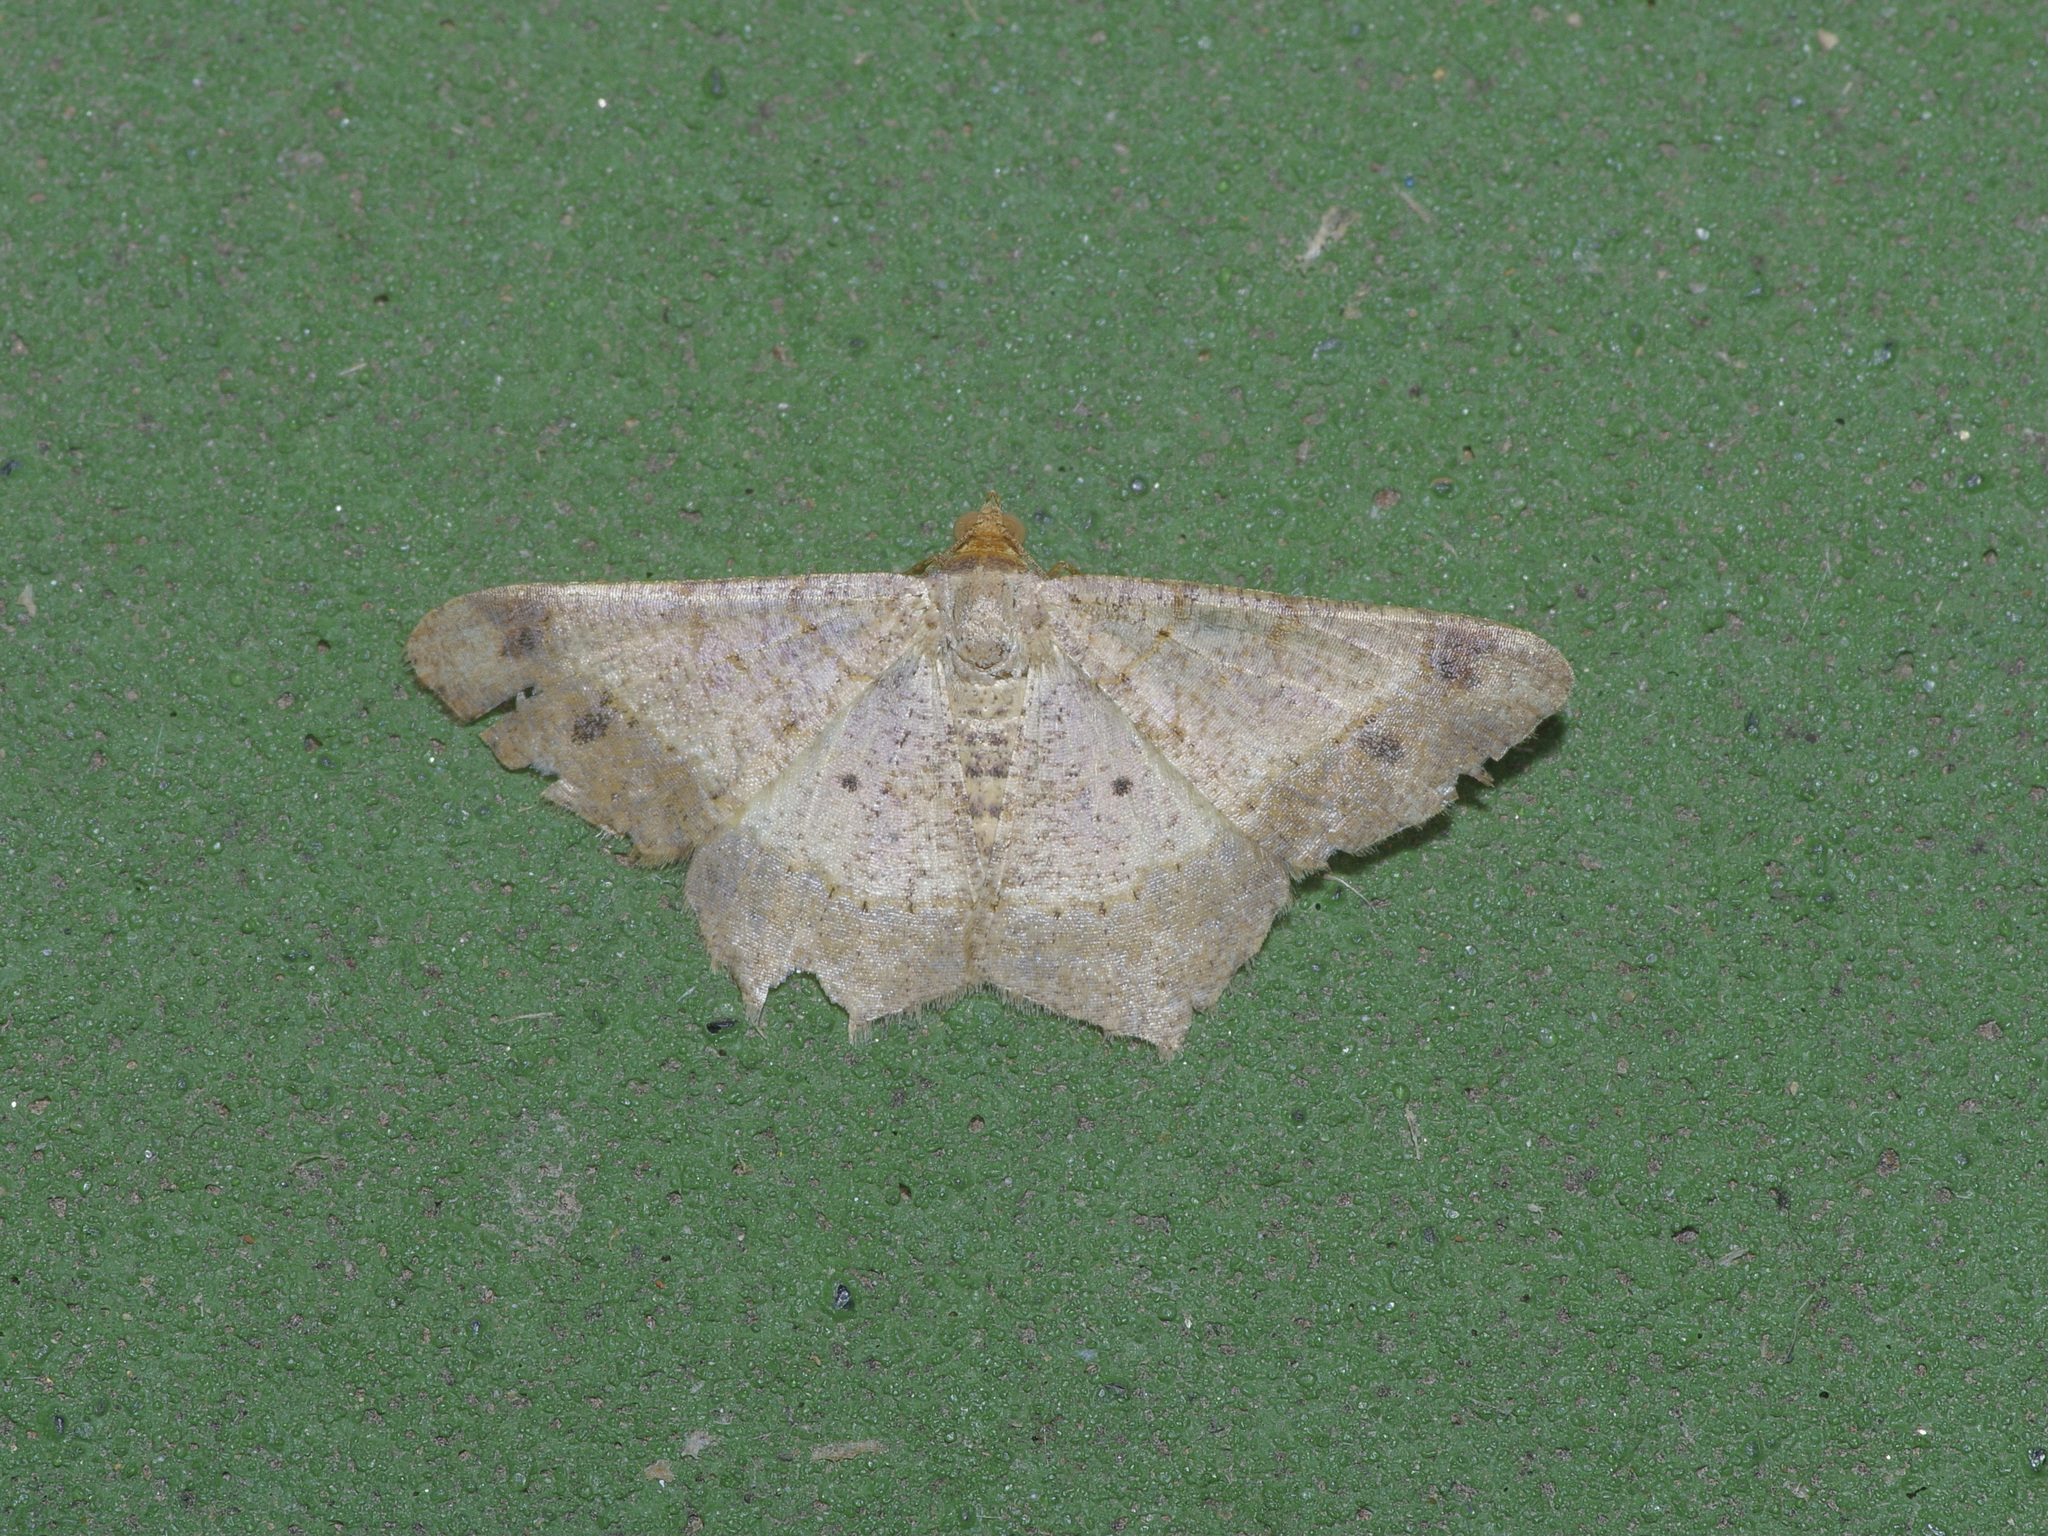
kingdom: Animalia
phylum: Arthropoda
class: Insecta
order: Lepidoptera
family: Geometridae
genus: Macaria
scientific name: Macaria abydata
